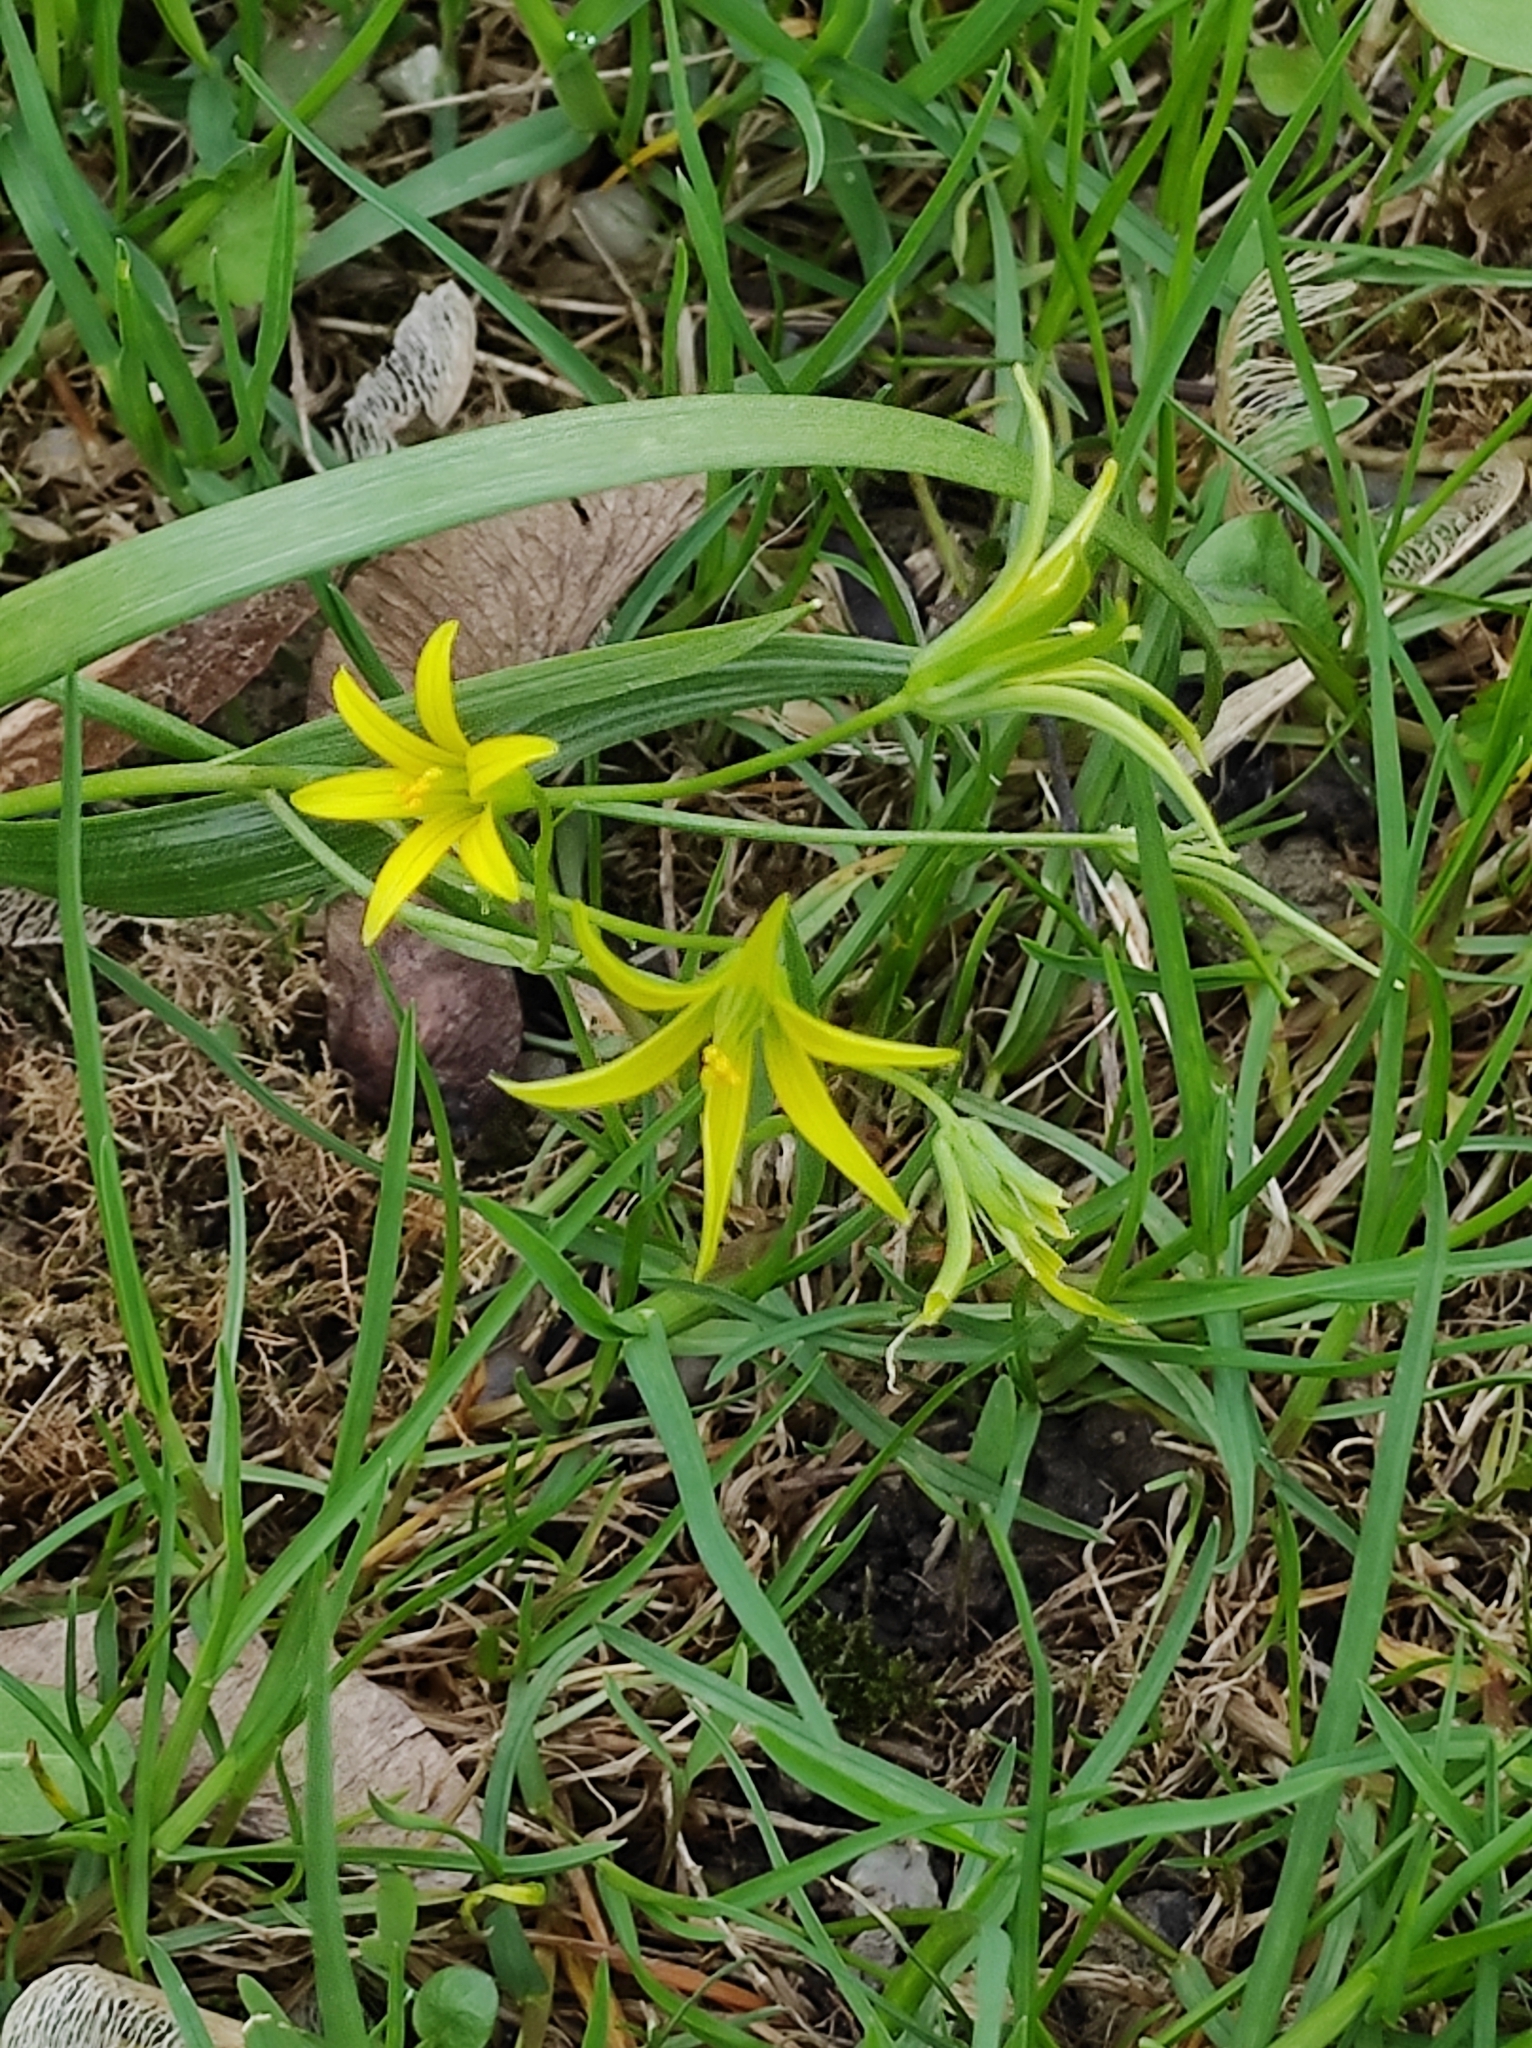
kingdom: Plantae
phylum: Tracheophyta
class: Liliopsida
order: Liliales
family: Liliaceae
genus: Gagea
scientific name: Gagea minima
